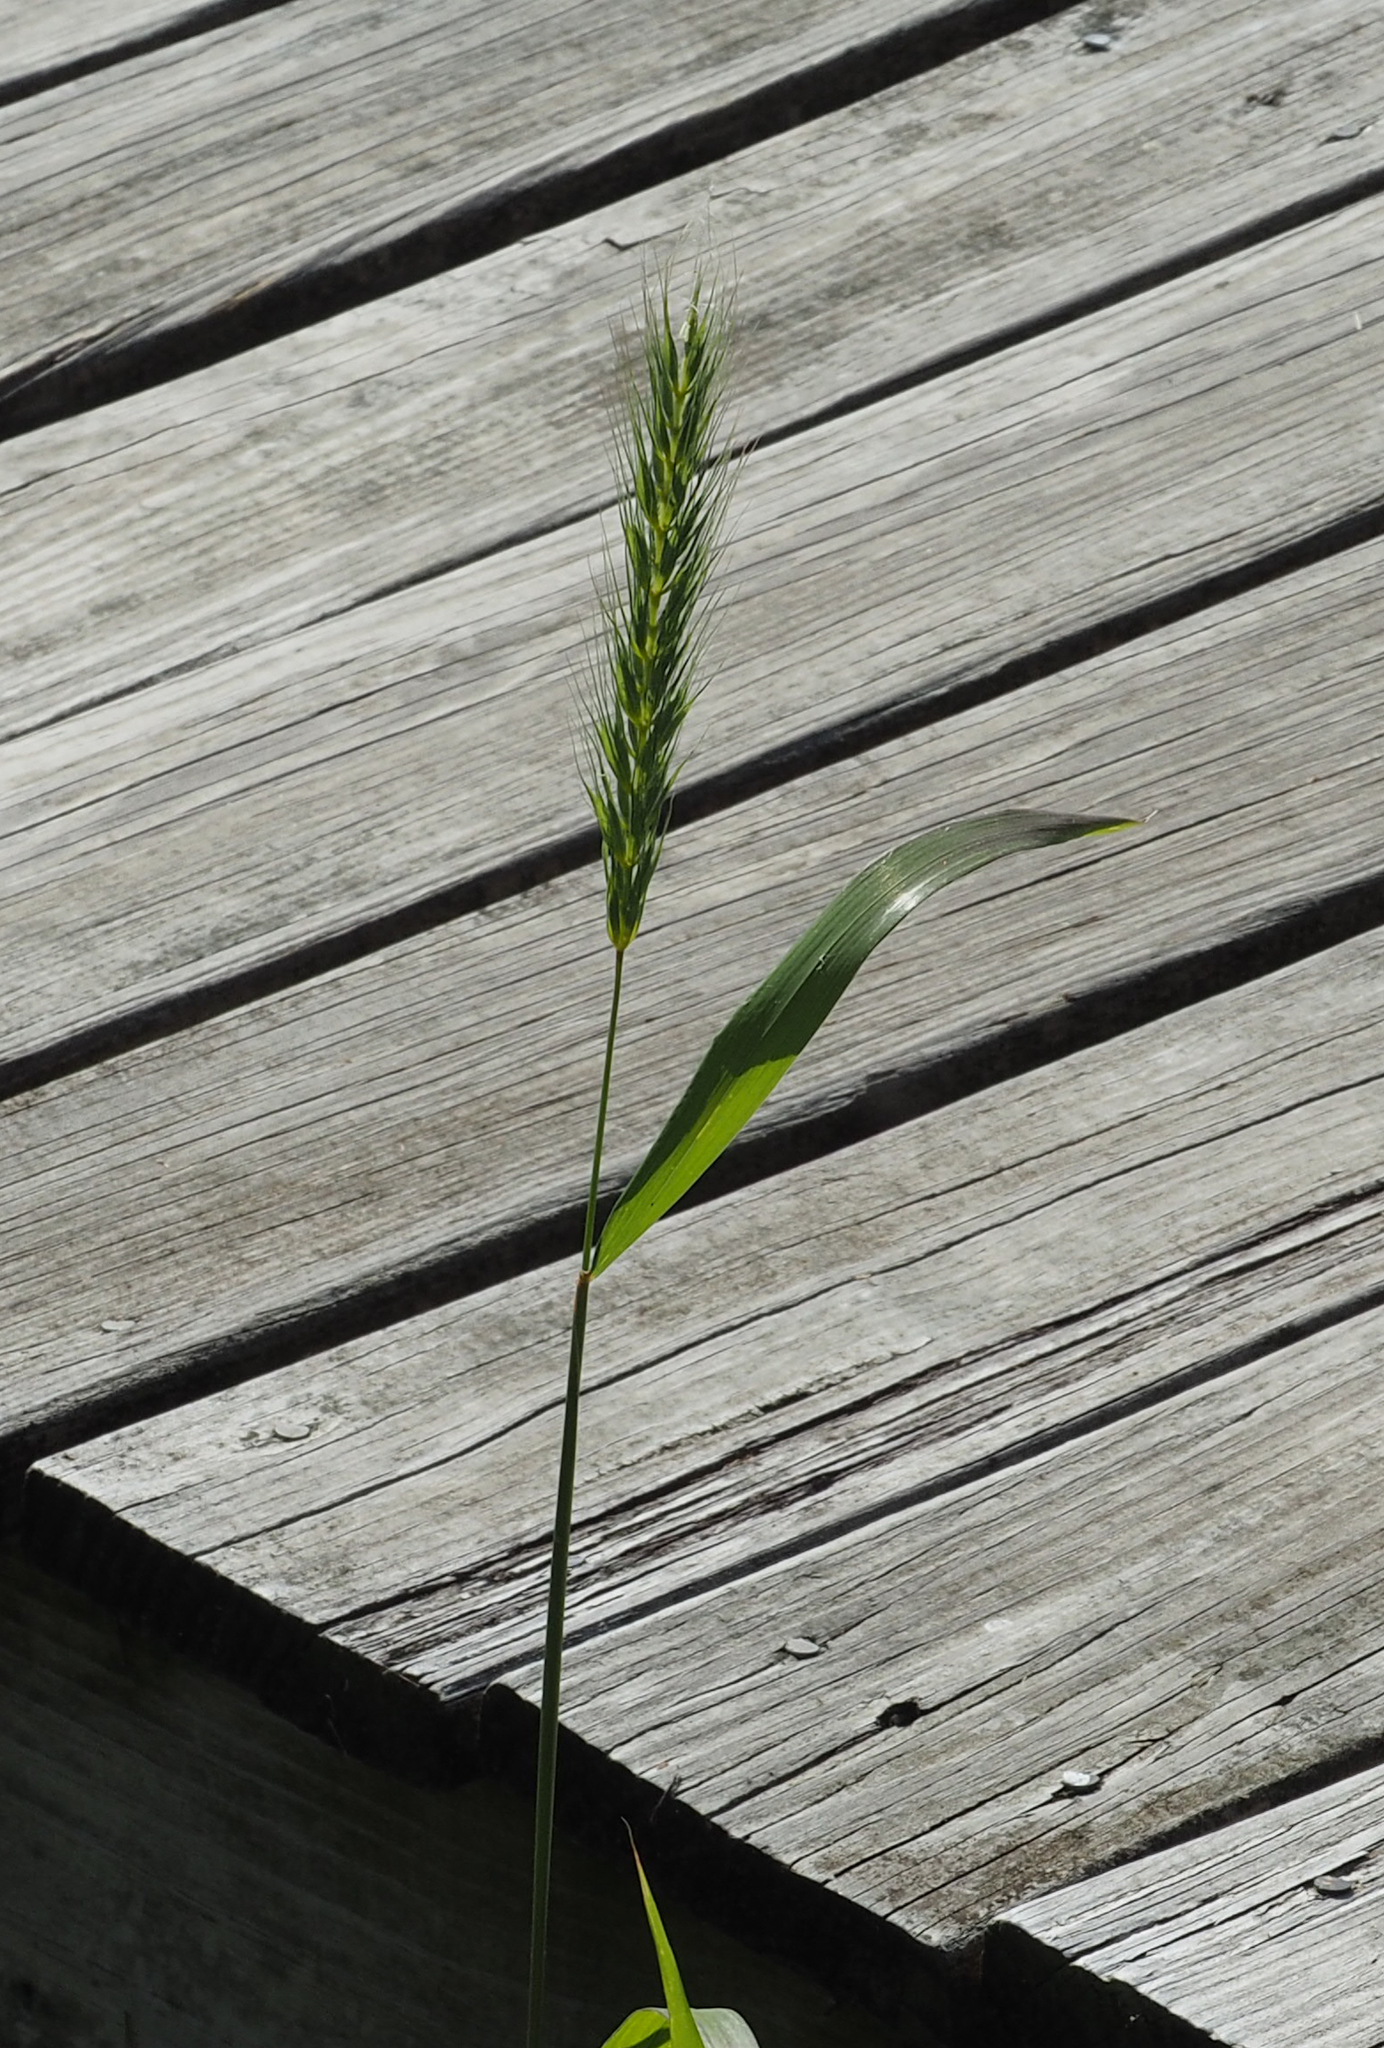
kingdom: Plantae
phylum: Tracheophyta
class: Liliopsida
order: Poales
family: Poaceae
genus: Elymus
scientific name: Elymus macgregorii
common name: Early wild rye
